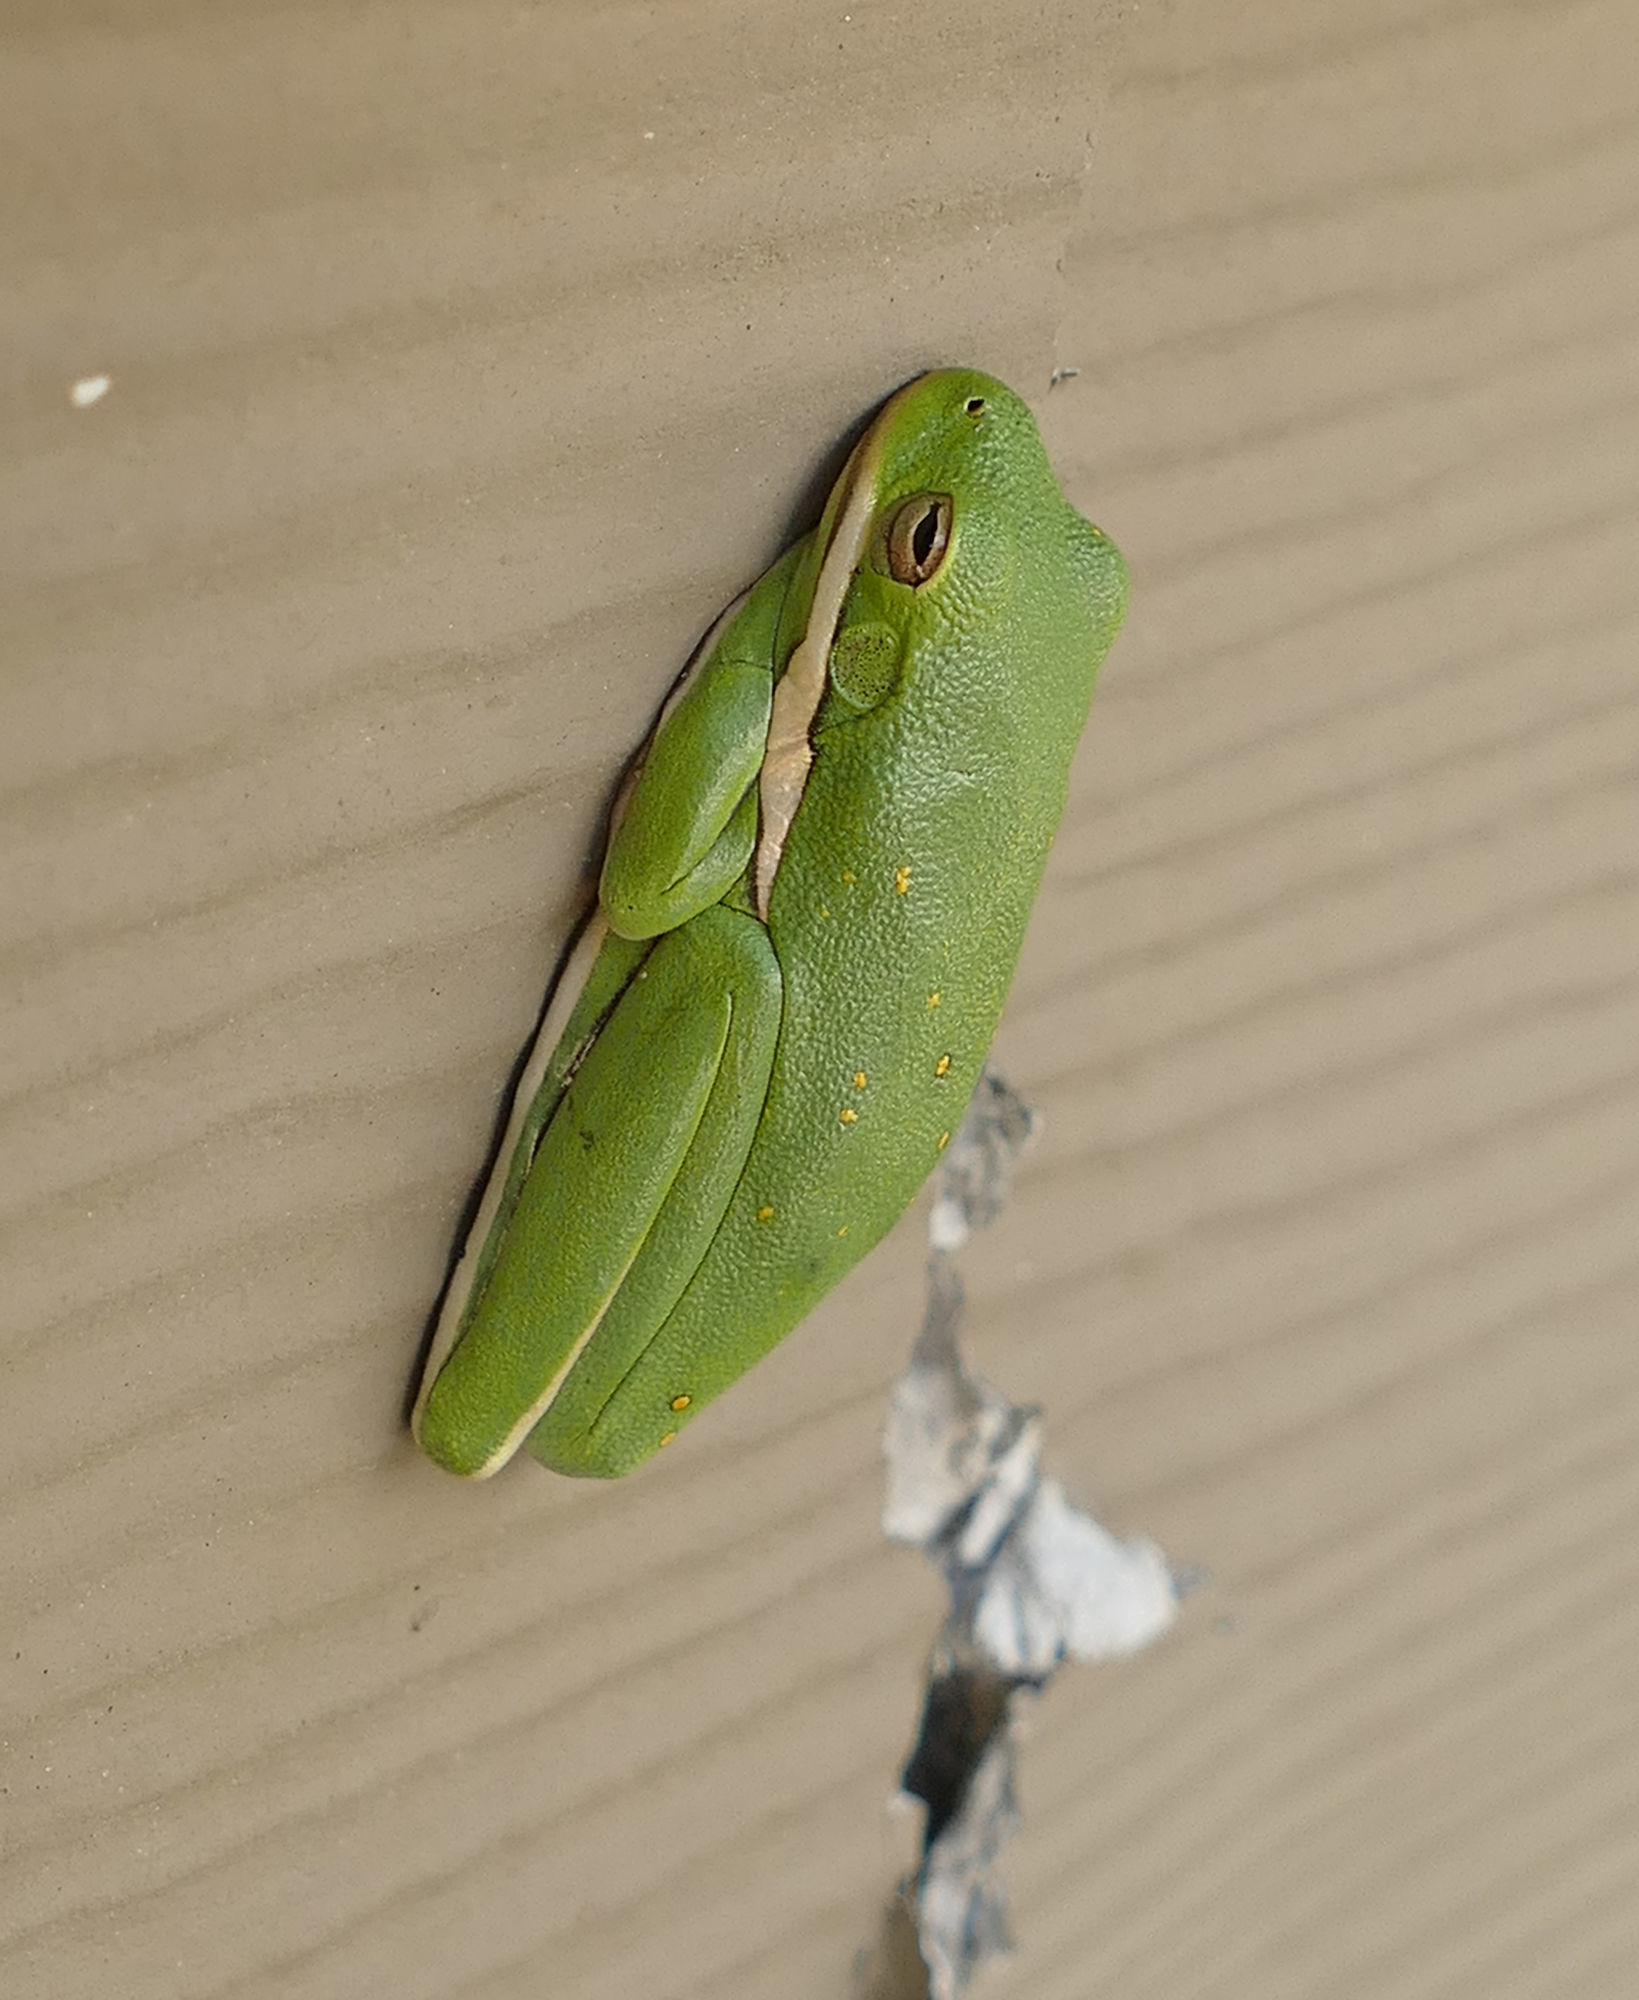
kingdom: Animalia
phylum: Chordata
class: Amphibia
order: Anura
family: Hylidae
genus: Dryophytes
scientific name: Dryophytes cinereus
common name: Green treefrog
